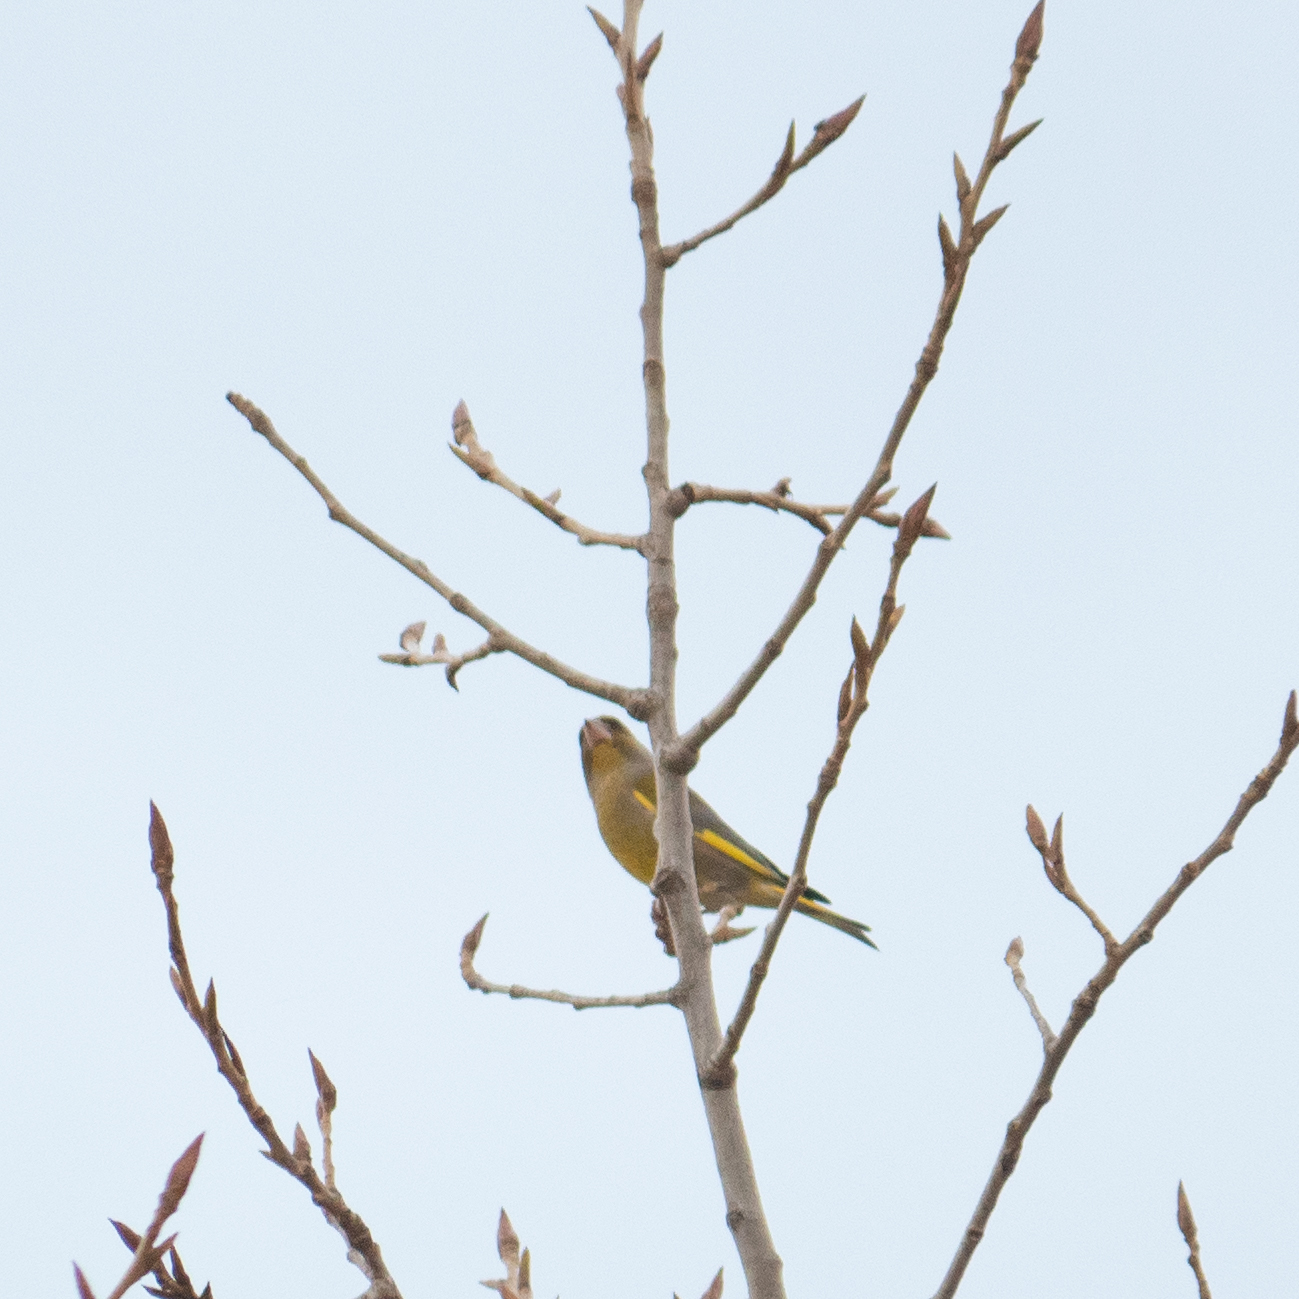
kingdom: Plantae
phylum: Tracheophyta
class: Liliopsida
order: Poales
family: Poaceae
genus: Chloris
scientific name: Chloris chloris
